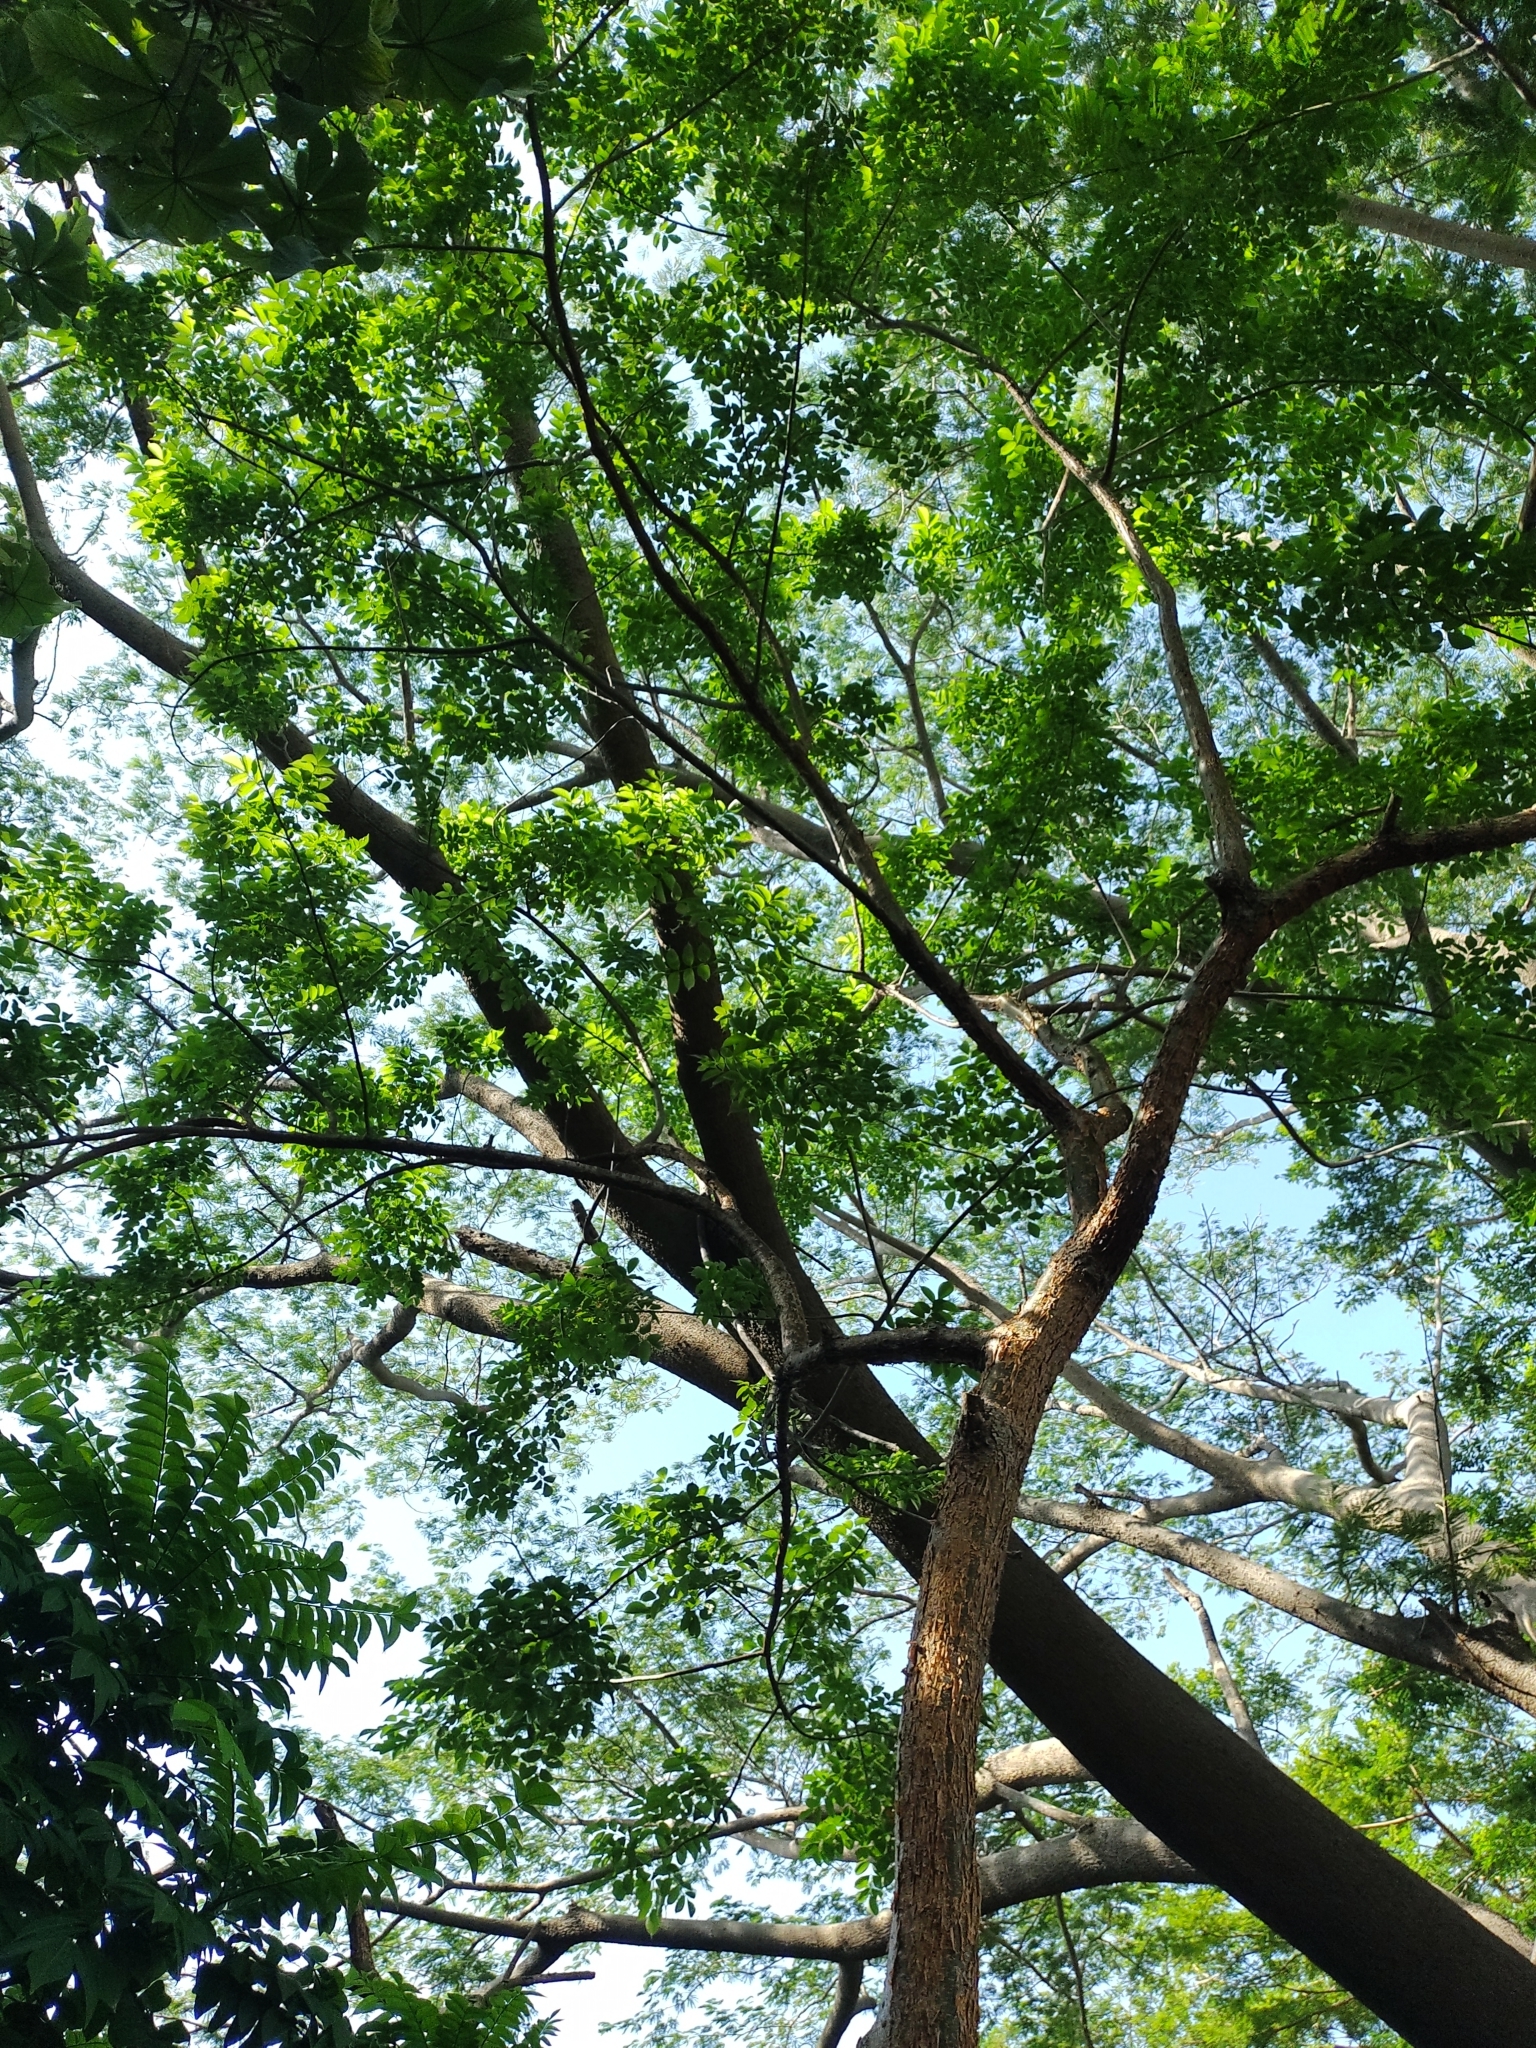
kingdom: Plantae
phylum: Tracheophyta
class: Magnoliopsida
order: Sapindales
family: Burseraceae
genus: Bursera
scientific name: Bursera simaruba
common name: Turpentine tree
